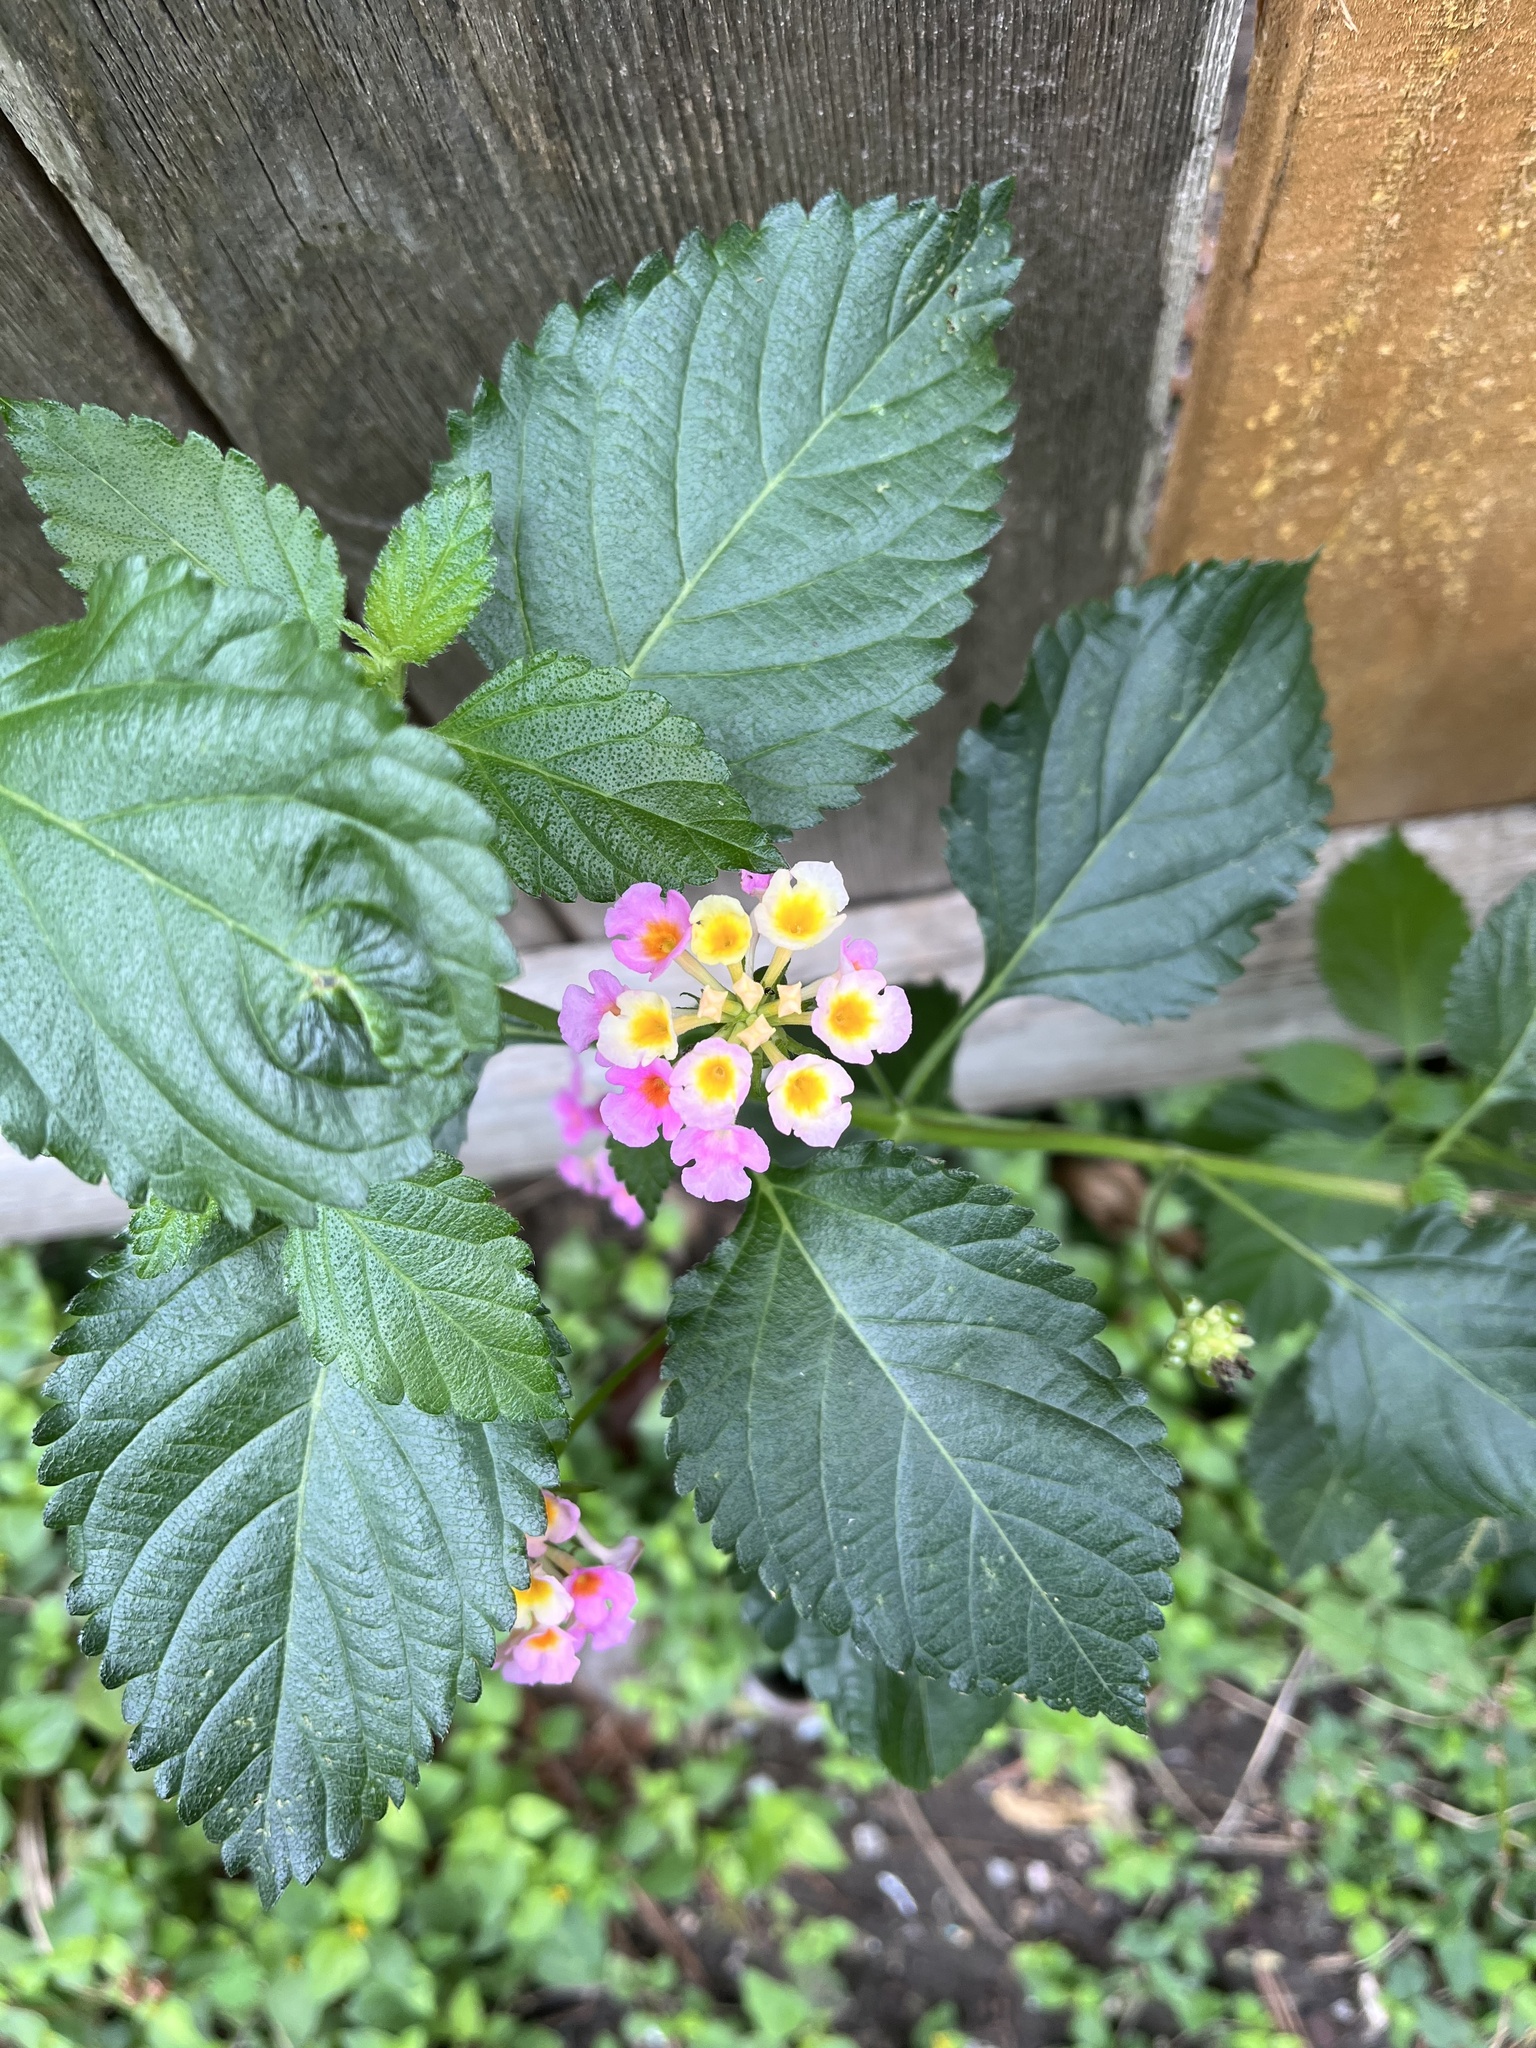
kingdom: Plantae
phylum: Tracheophyta
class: Magnoliopsida
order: Lamiales
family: Verbenaceae
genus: Lantana
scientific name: Lantana strigocamara
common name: Lantana
